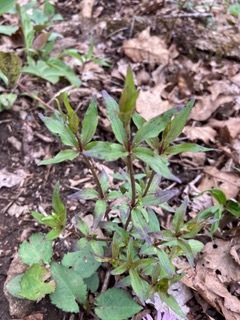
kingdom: Plantae
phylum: Tracheophyta
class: Magnoliopsida
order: Ericales
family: Primulaceae
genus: Lysimachia
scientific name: Lysimachia quadrifolia
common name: Whorled loosestrife
